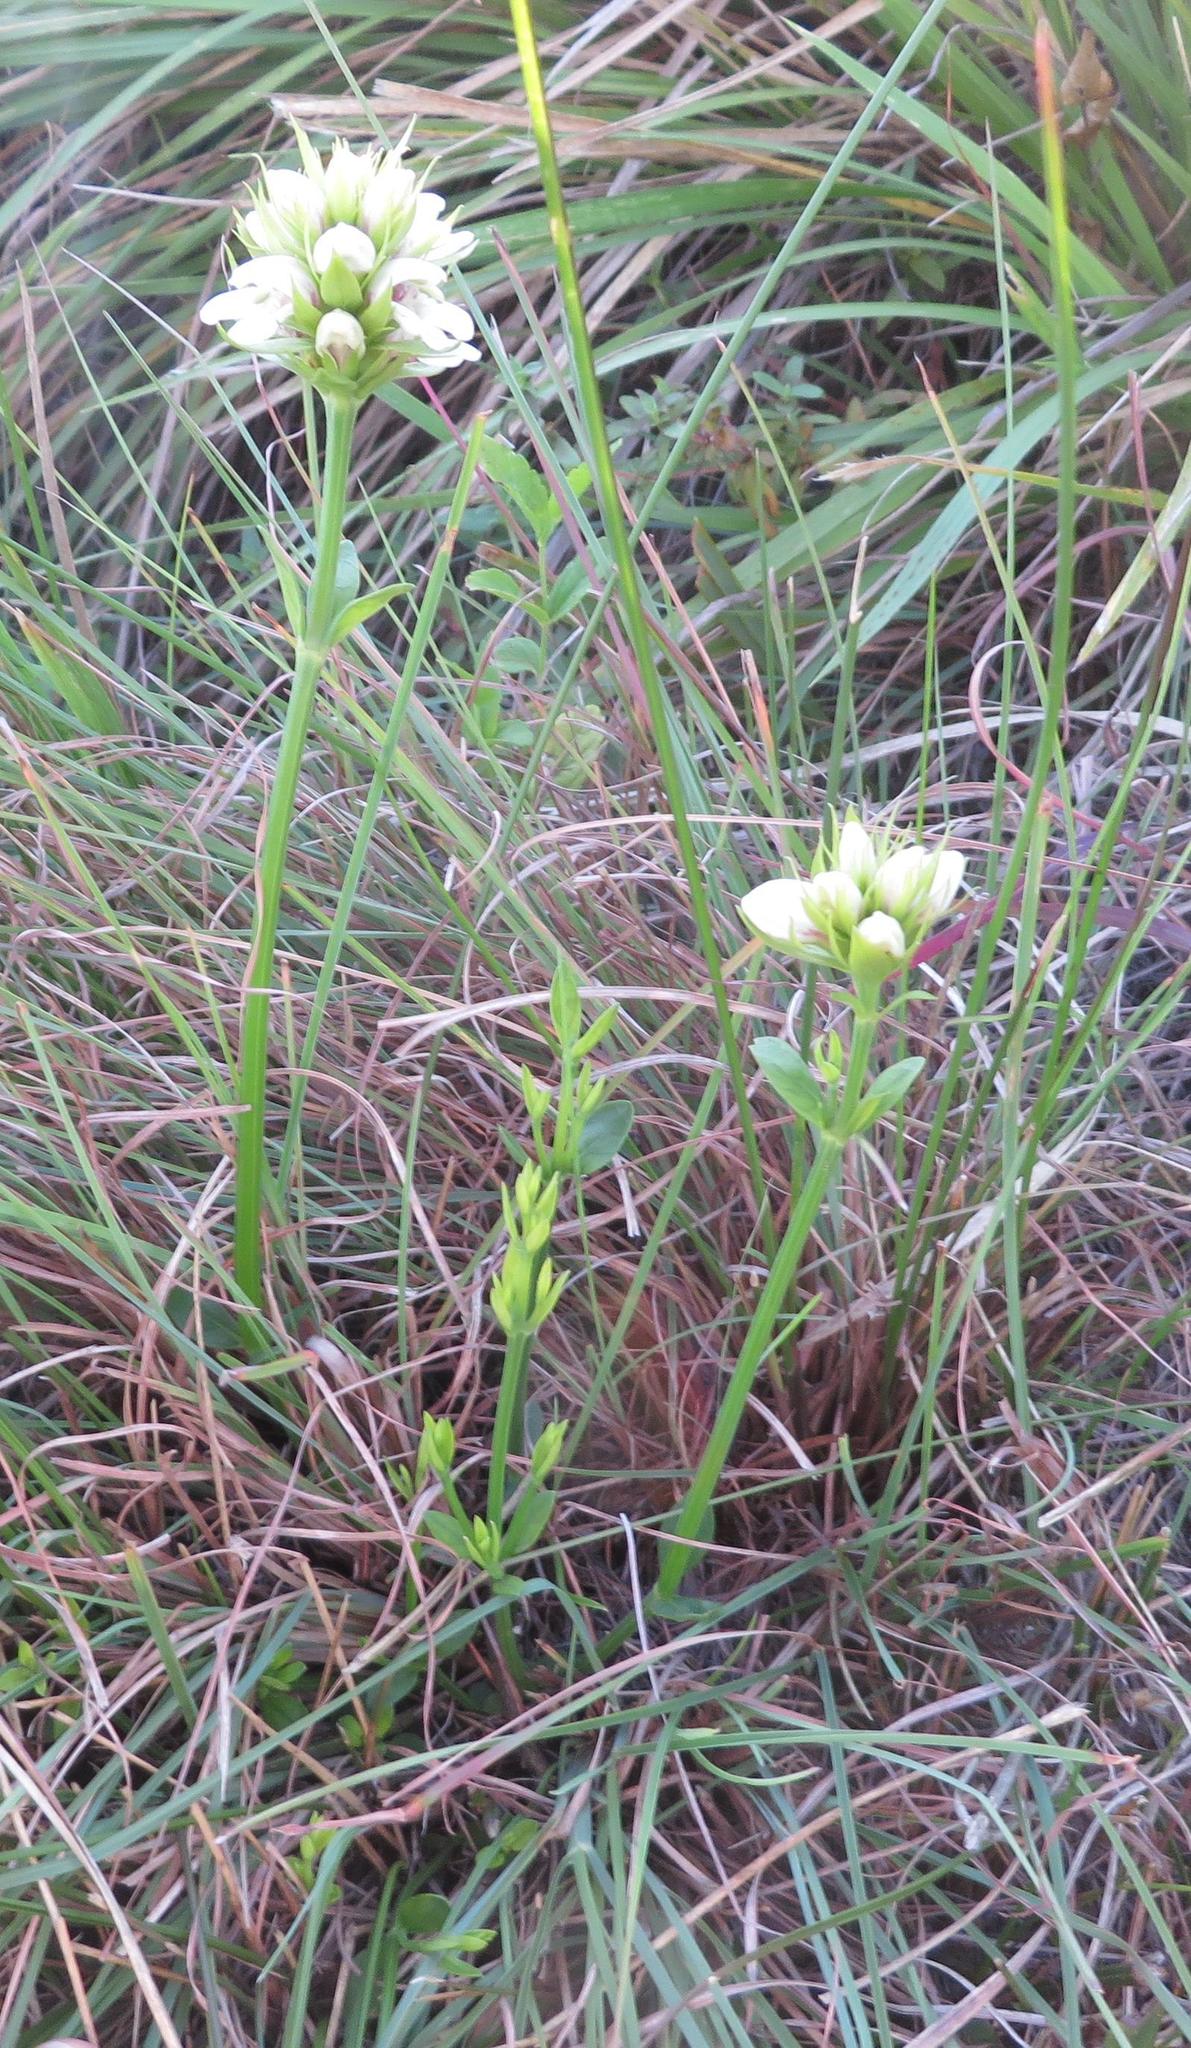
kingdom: Plantae
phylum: Tracheophyta
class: Magnoliopsida
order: Lamiales
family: Acanthaceae
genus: Justicia
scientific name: Justicia andromeda
